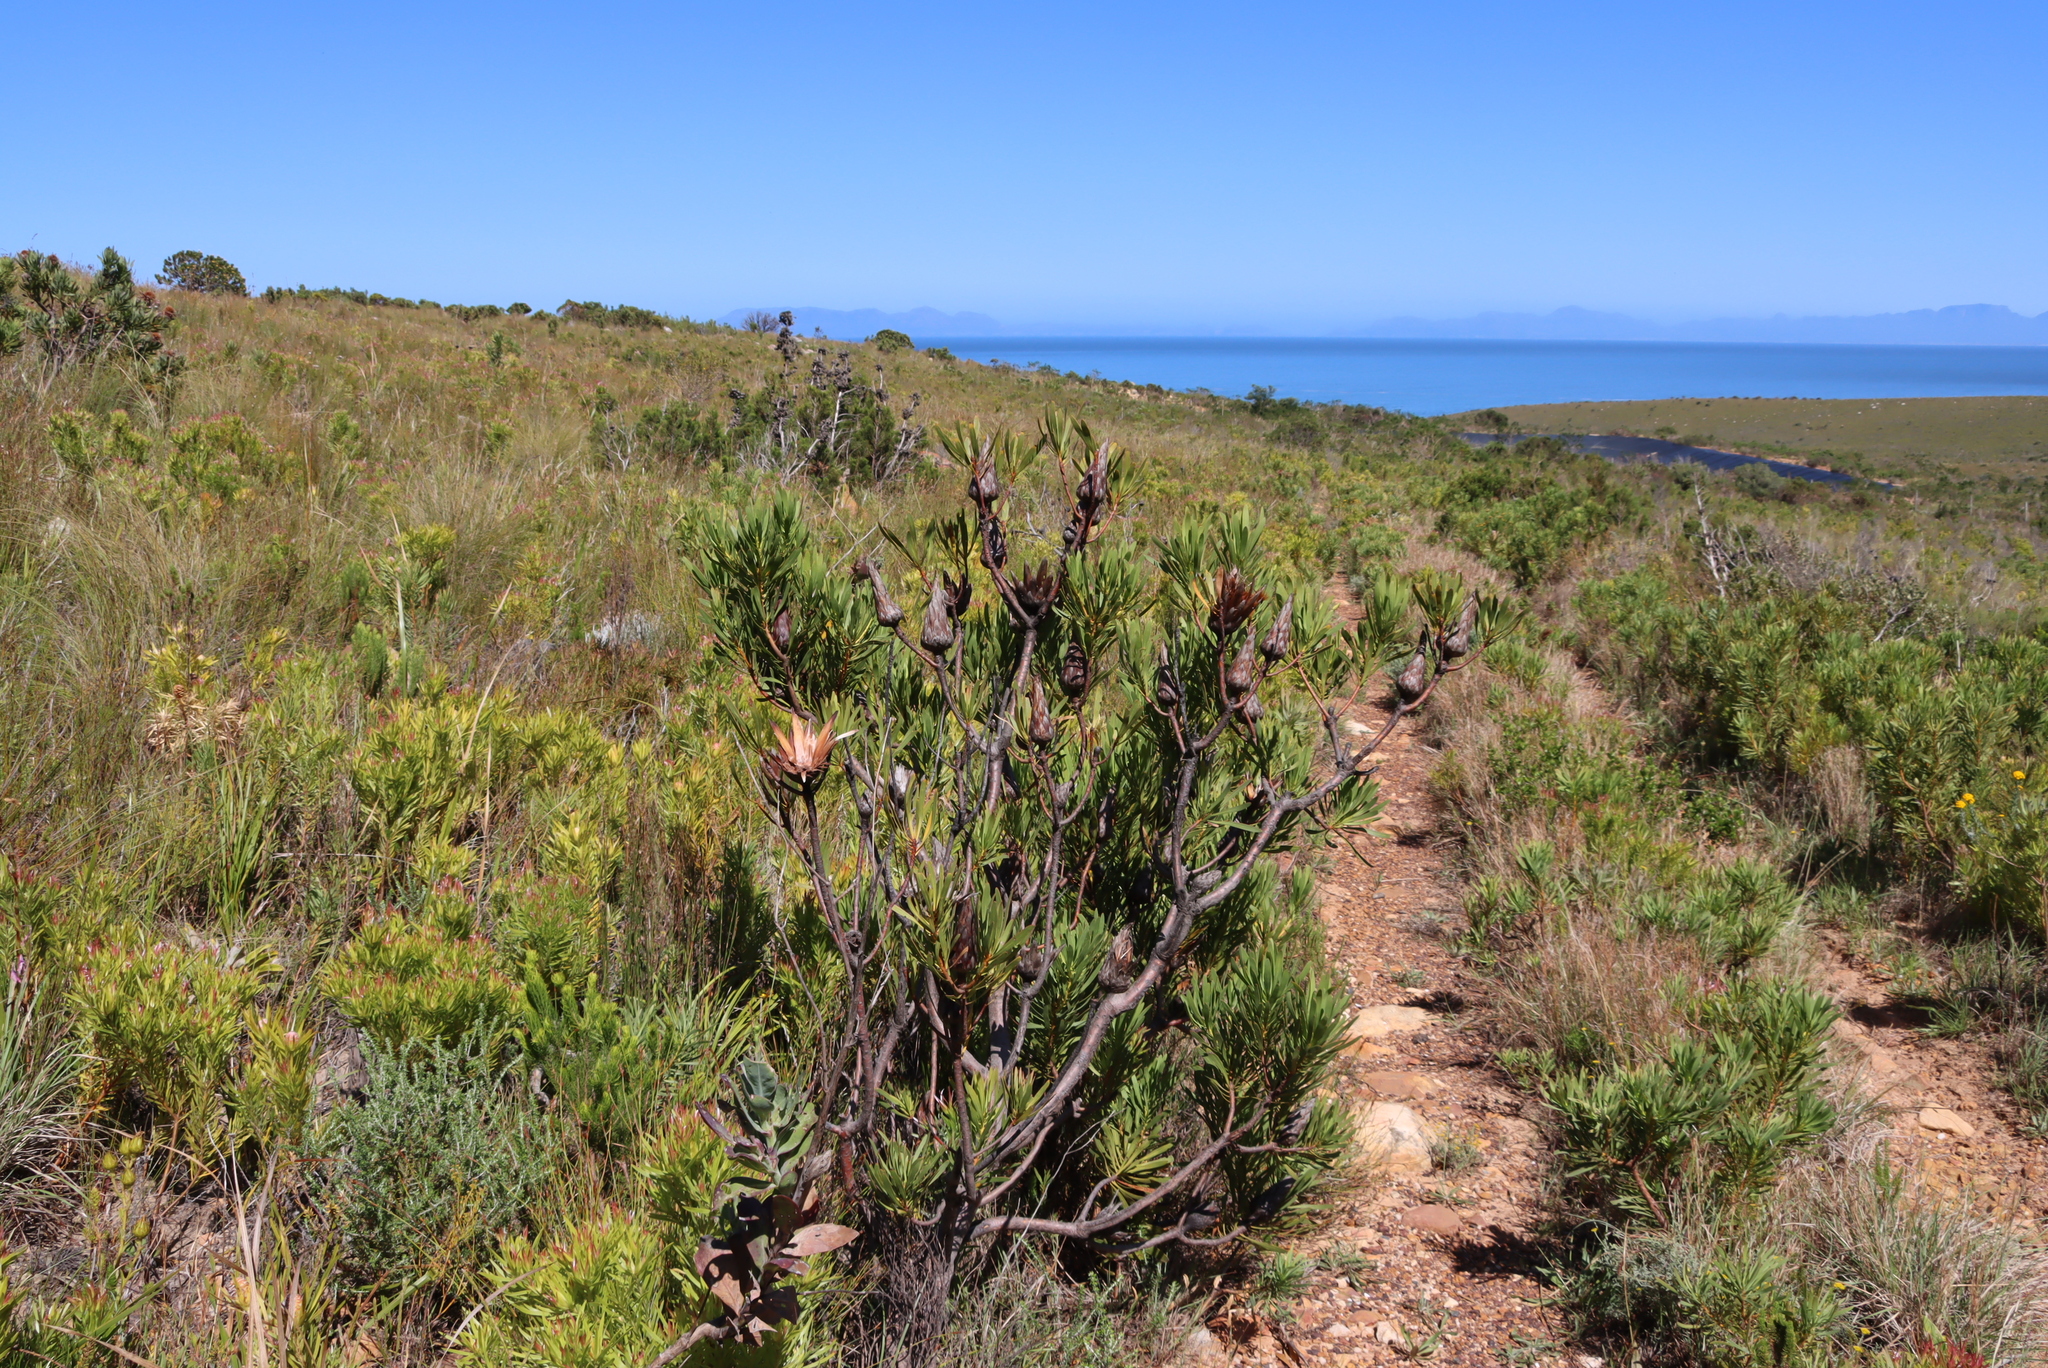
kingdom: Plantae
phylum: Tracheophyta
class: Magnoliopsida
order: Proteales
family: Proteaceae
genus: Protea
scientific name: Protea repens
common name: Sugarbush
